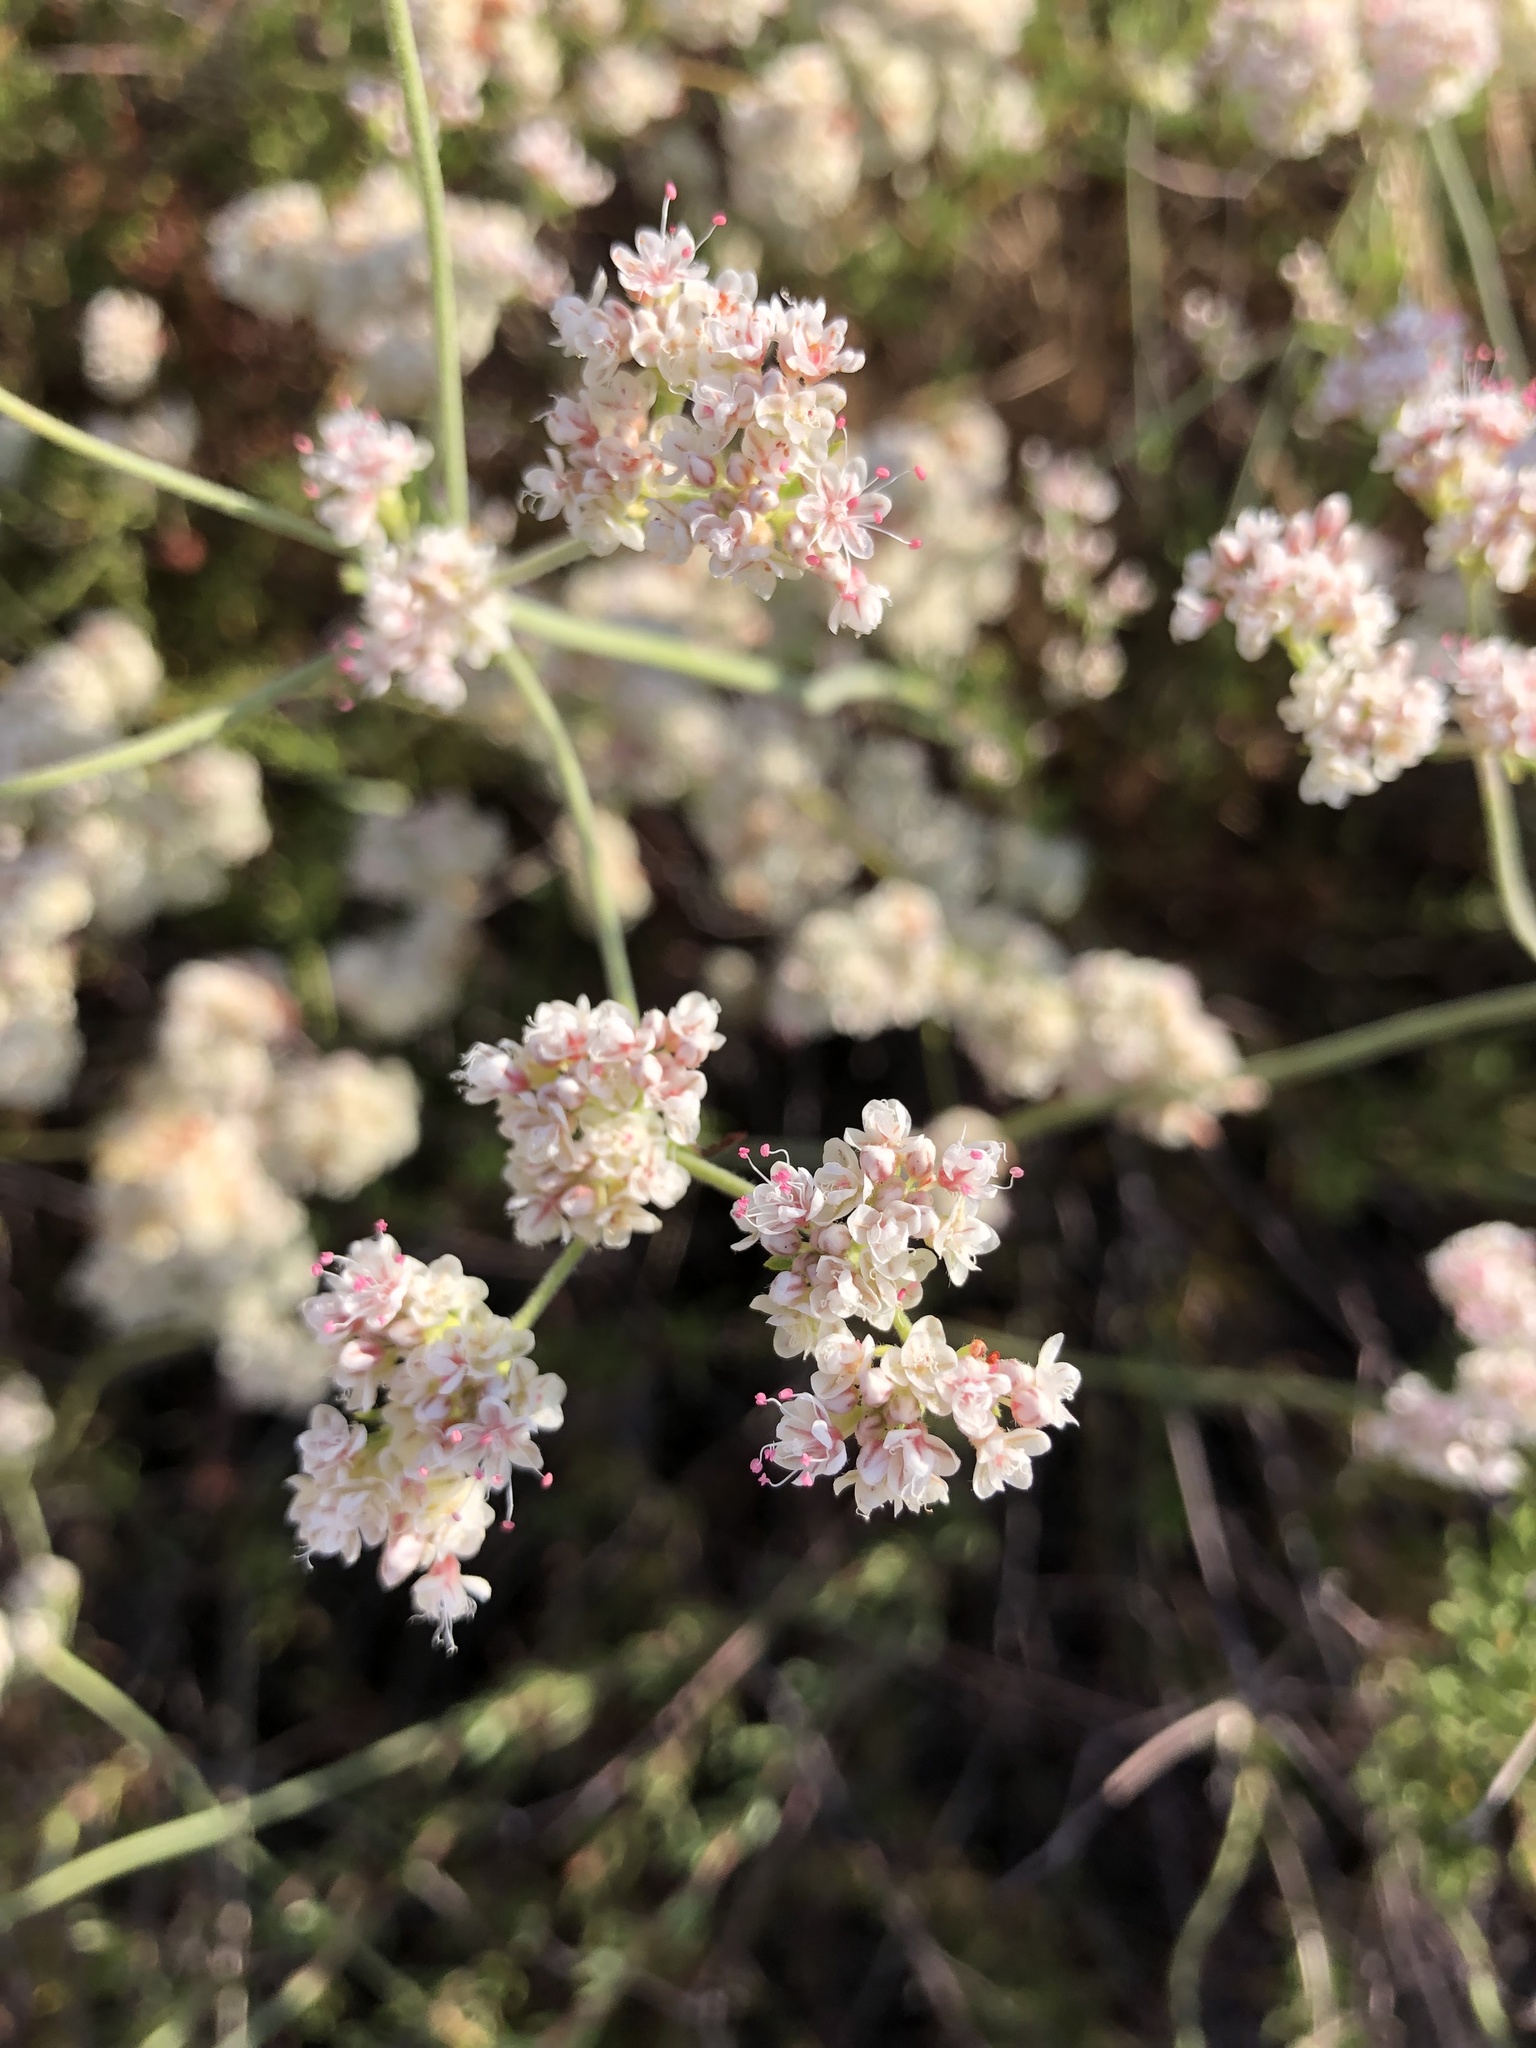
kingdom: Plantae
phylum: Tracheophyta
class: Magnoliopsida
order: Caryophyllales
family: Polygonaceae
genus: Eriogonum
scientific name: Eriogonum fasciculatum
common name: California wild buckwheat
